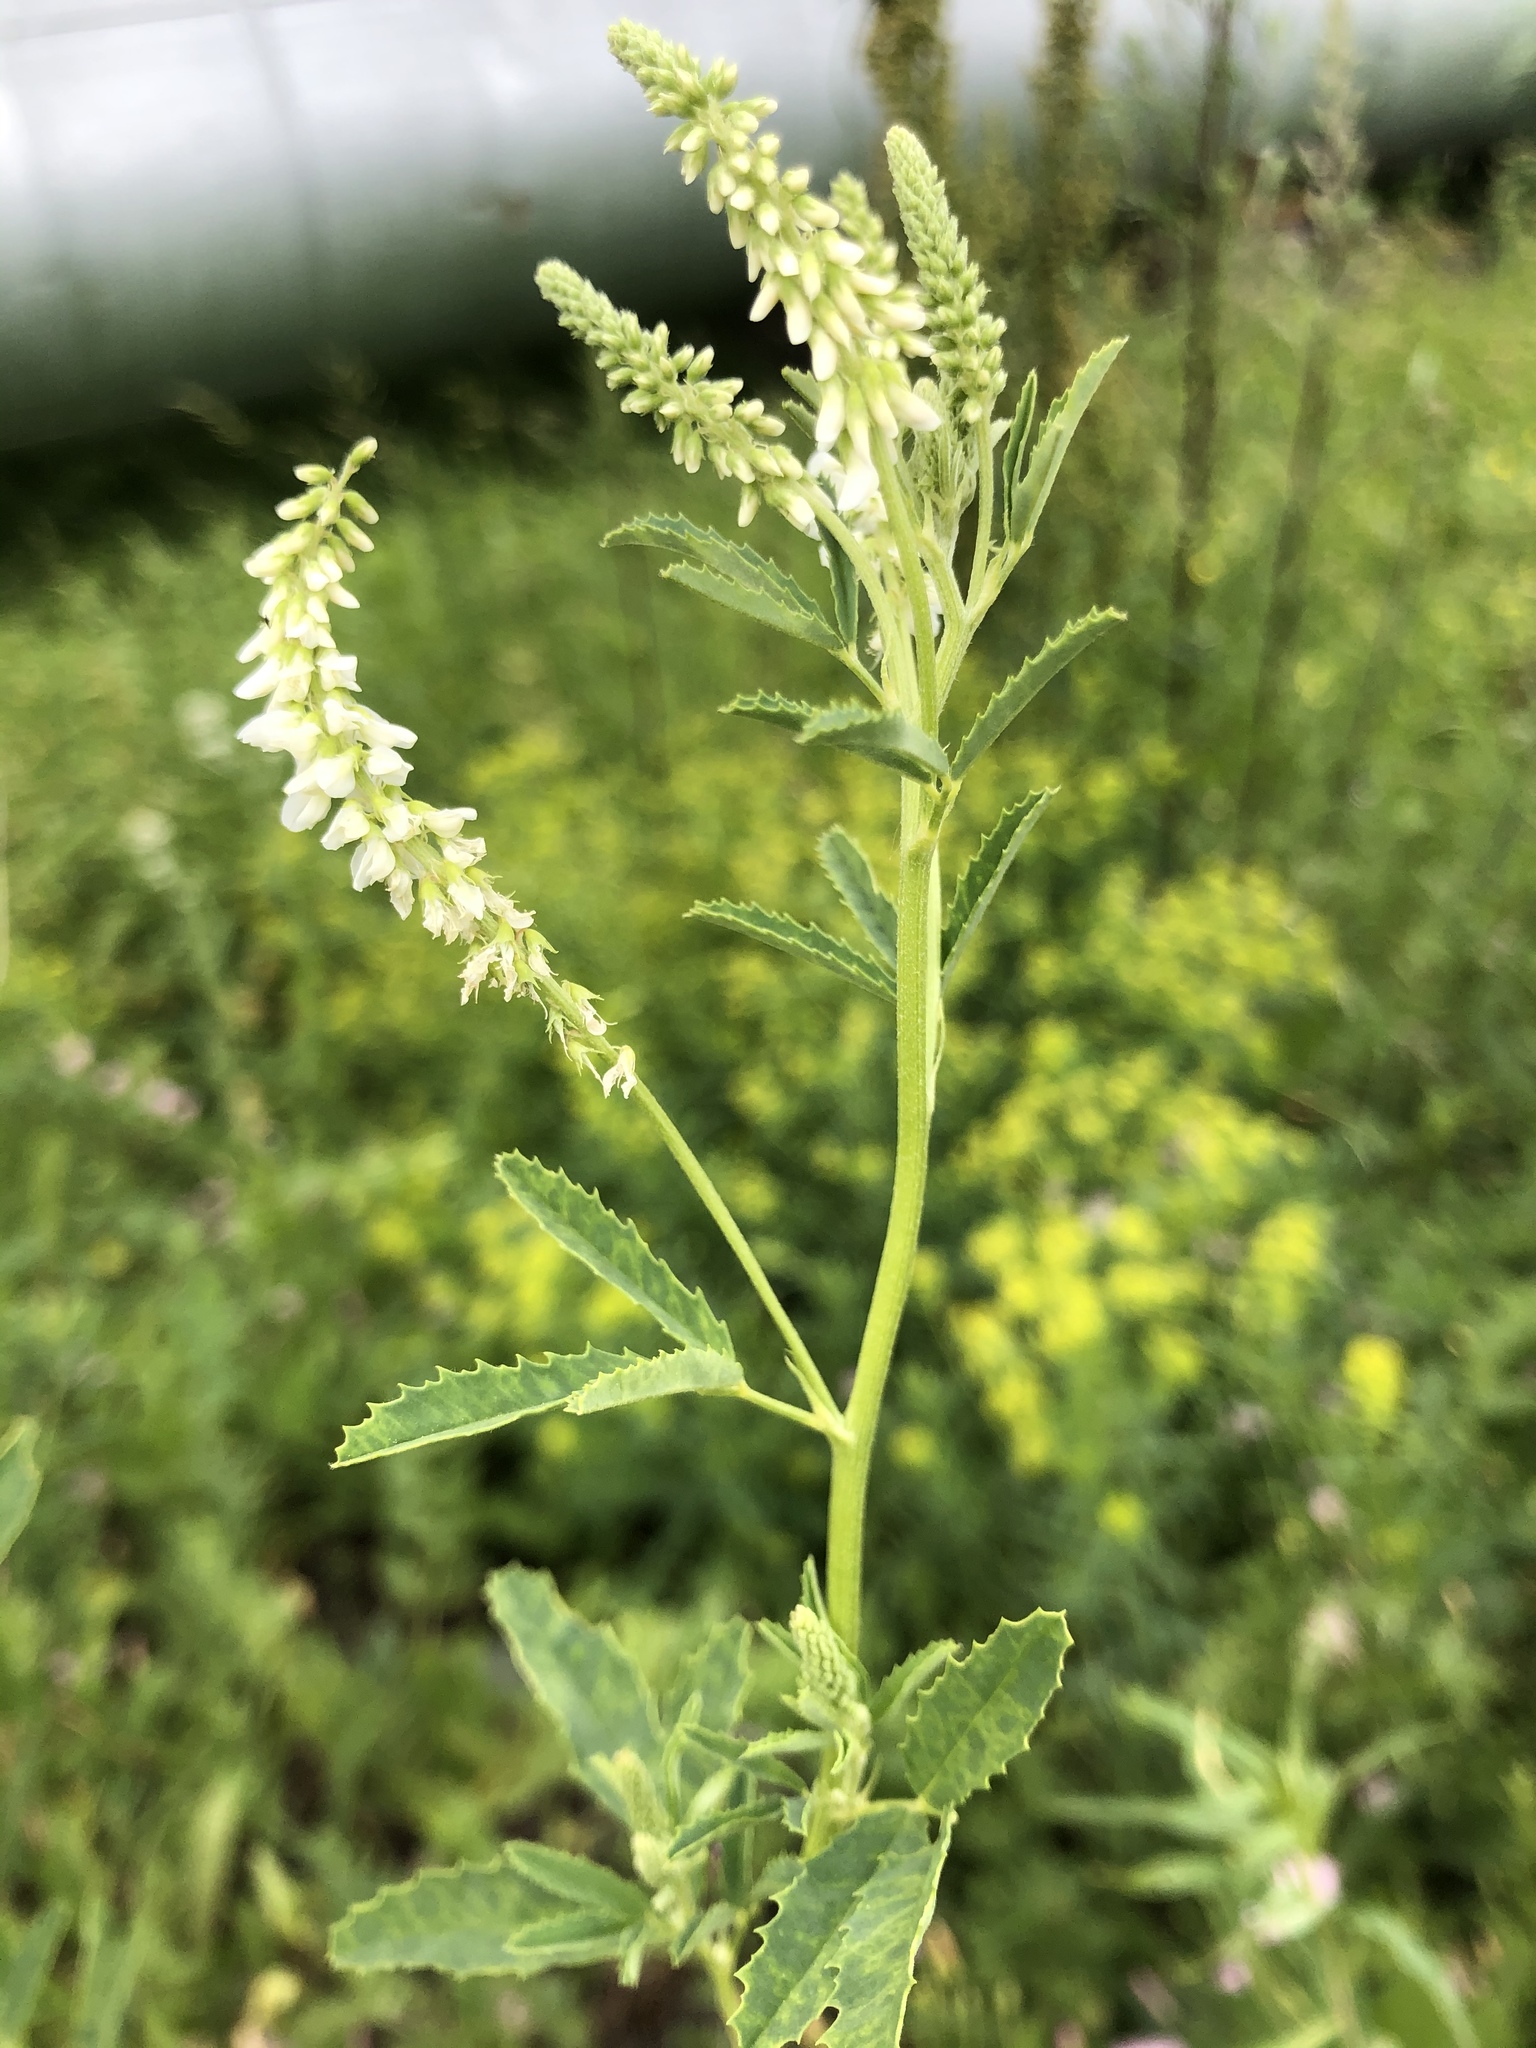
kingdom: Plantae
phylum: Tracheophyta
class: Magnoliopsida
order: Fabales
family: Fabaceae
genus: Melilotus
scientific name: Melilotus albus
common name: White melilot
